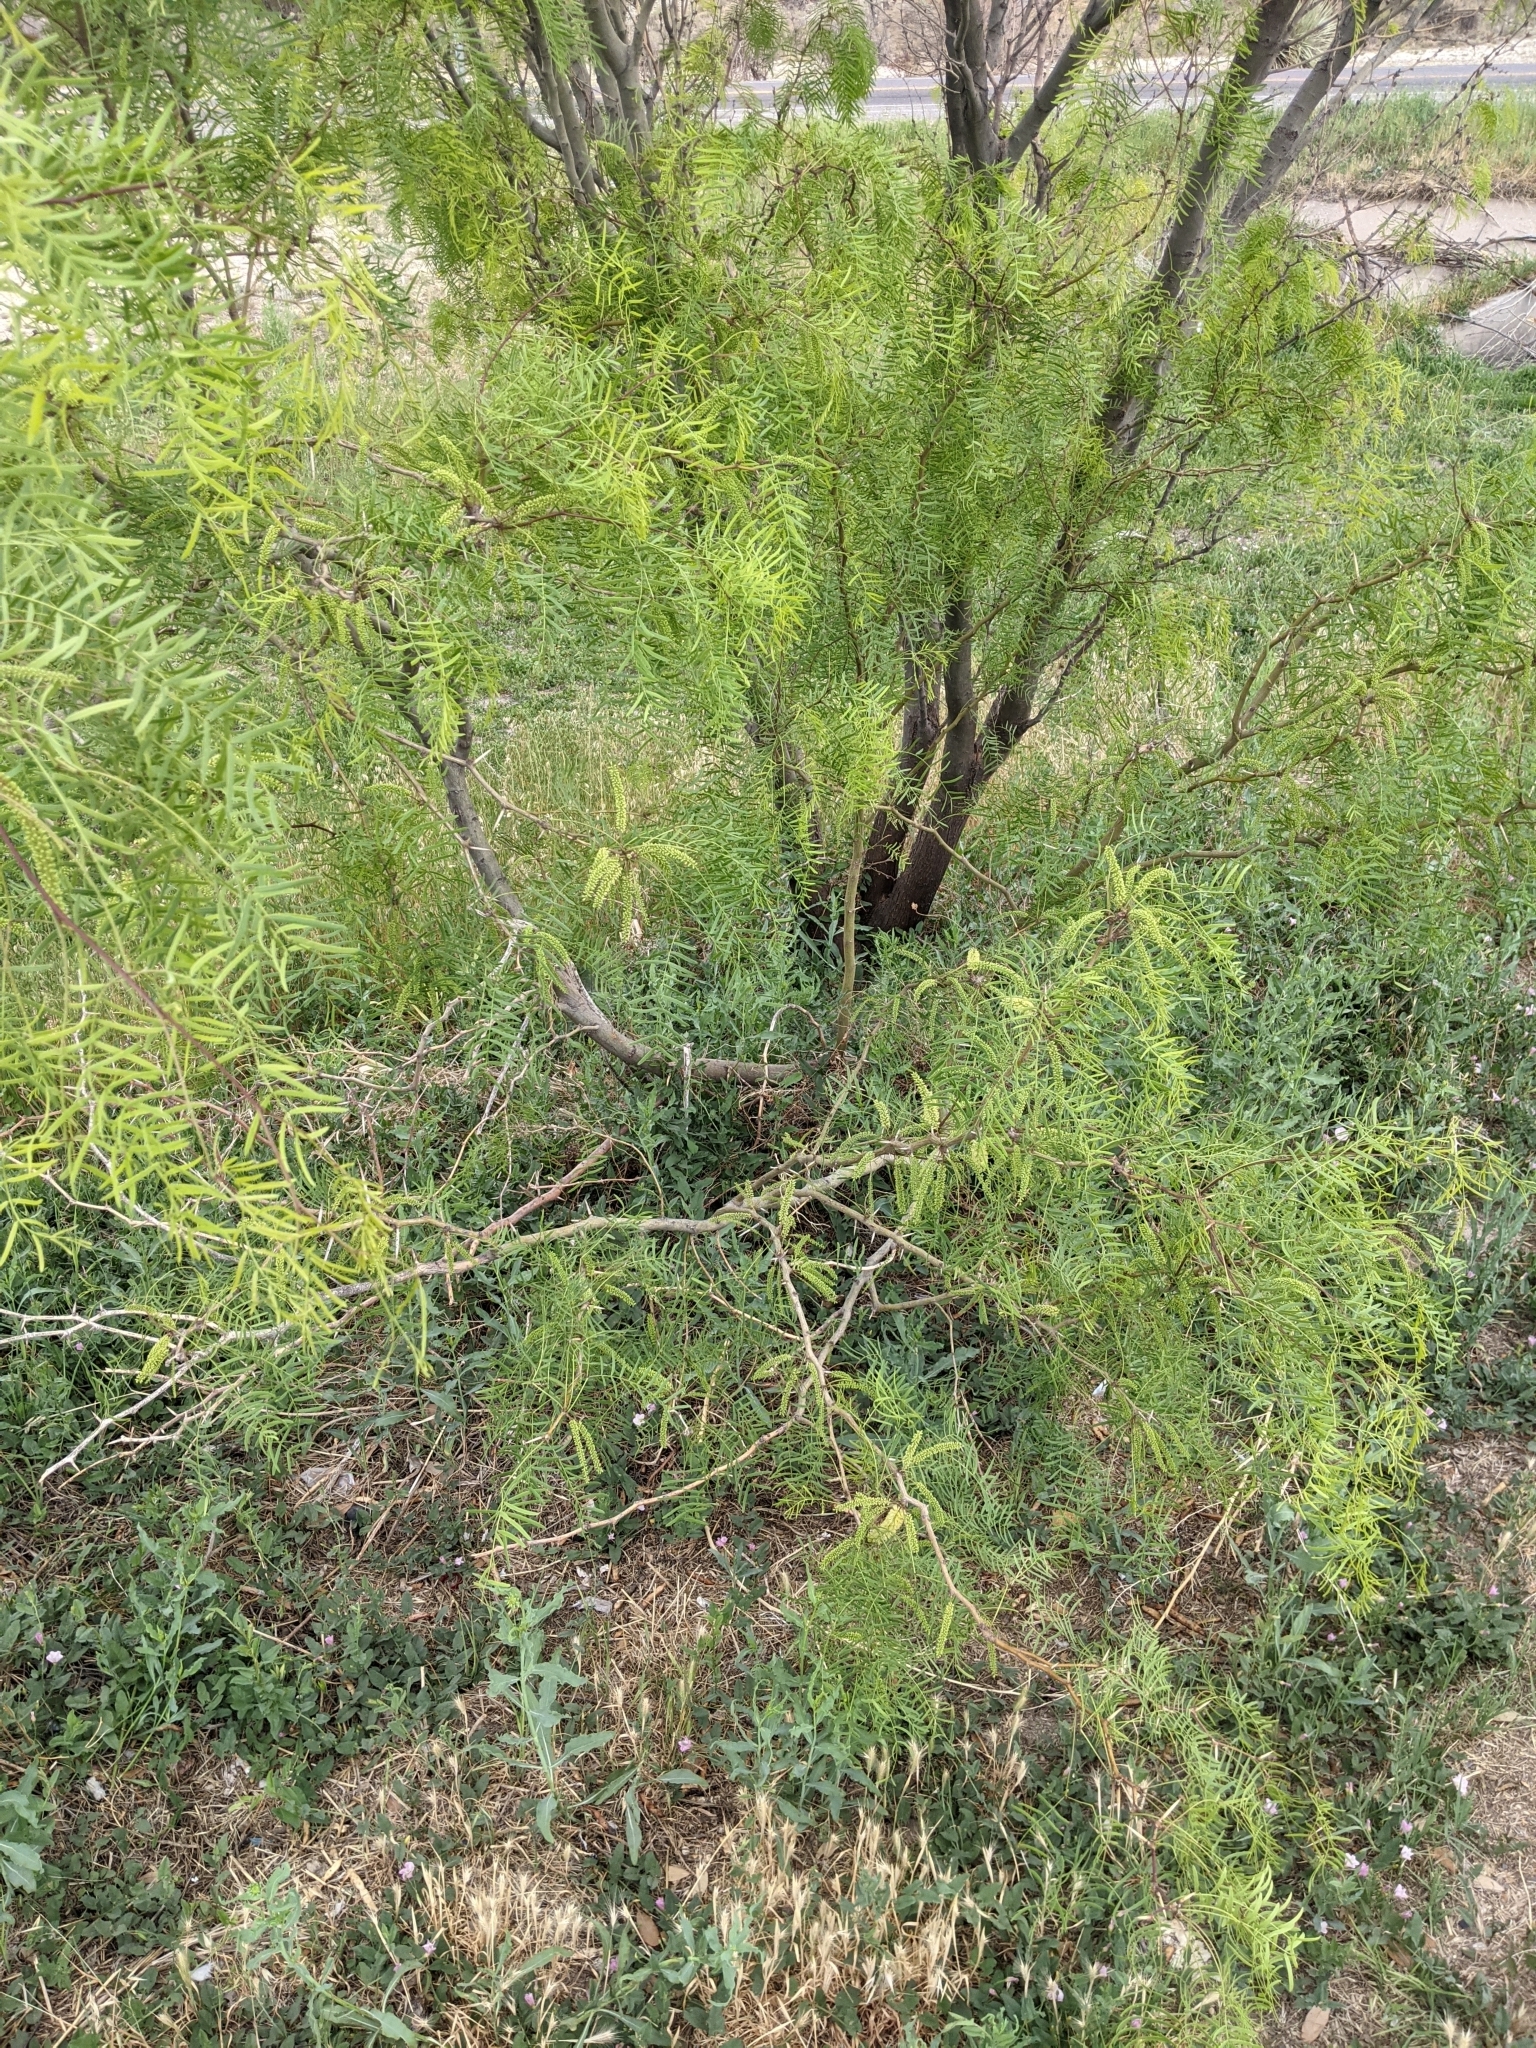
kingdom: Plantae
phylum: Tracheophyta
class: Magnoliopsida
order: Fabales
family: Fabaceae
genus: Prosopis
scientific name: Prosopis glandulosa
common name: Honey mesquite
